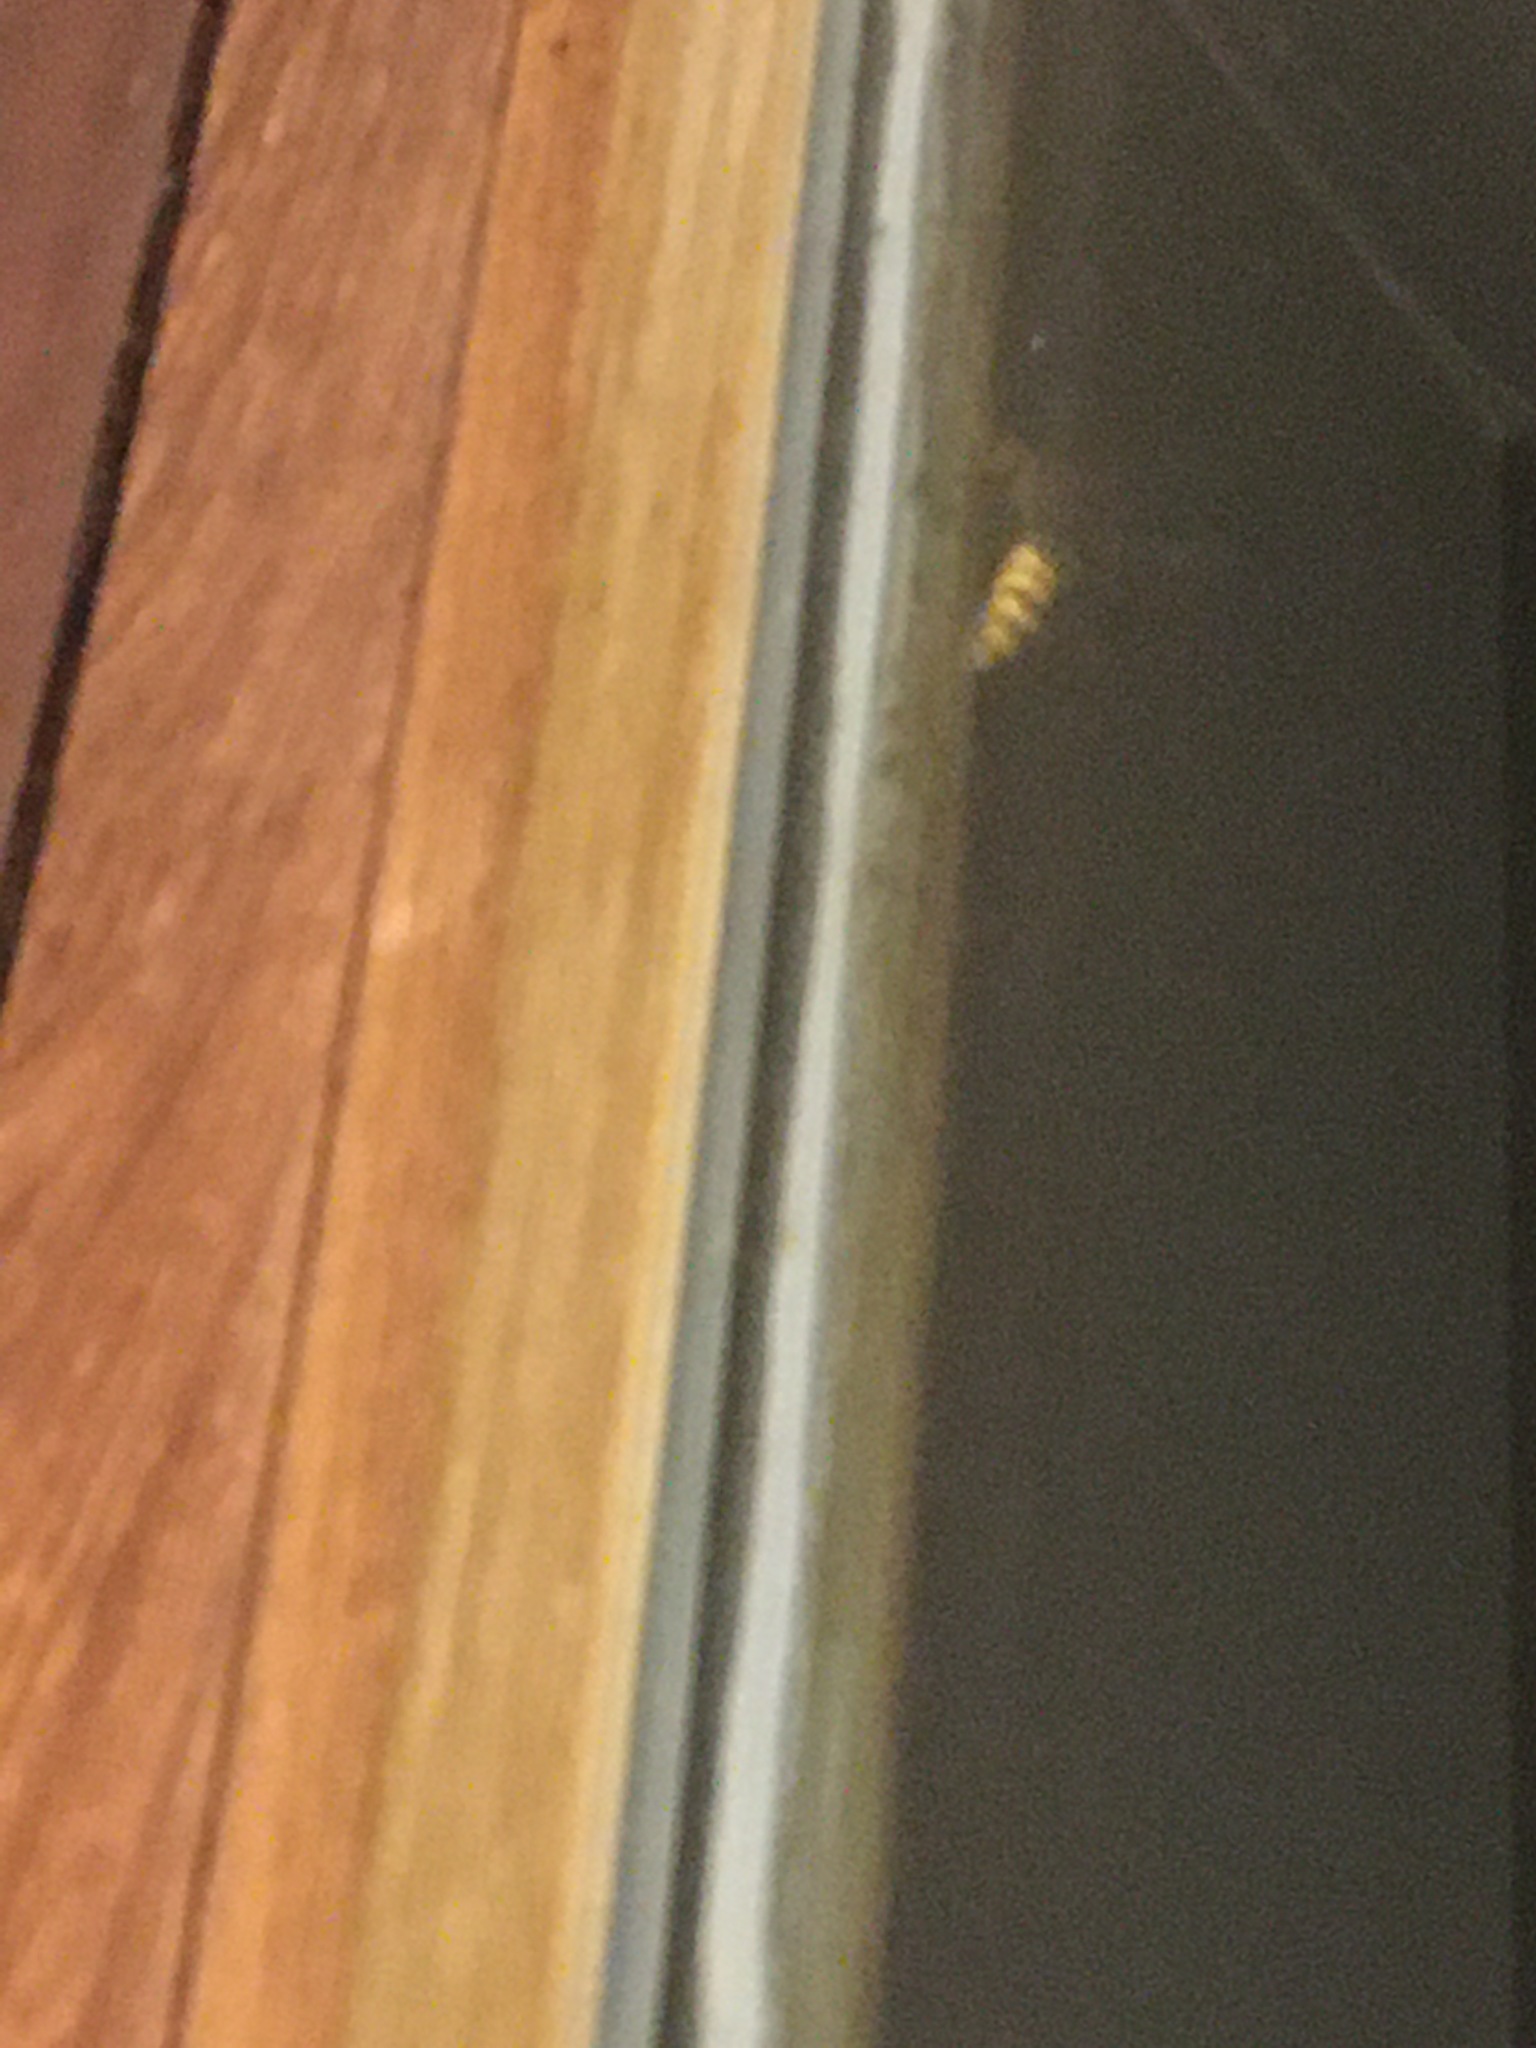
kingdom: Animalia
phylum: Arthropoda
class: Insecta
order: Hymenoptera
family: Vespidae
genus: Vespa
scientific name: Vespa crabro
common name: Hornet
